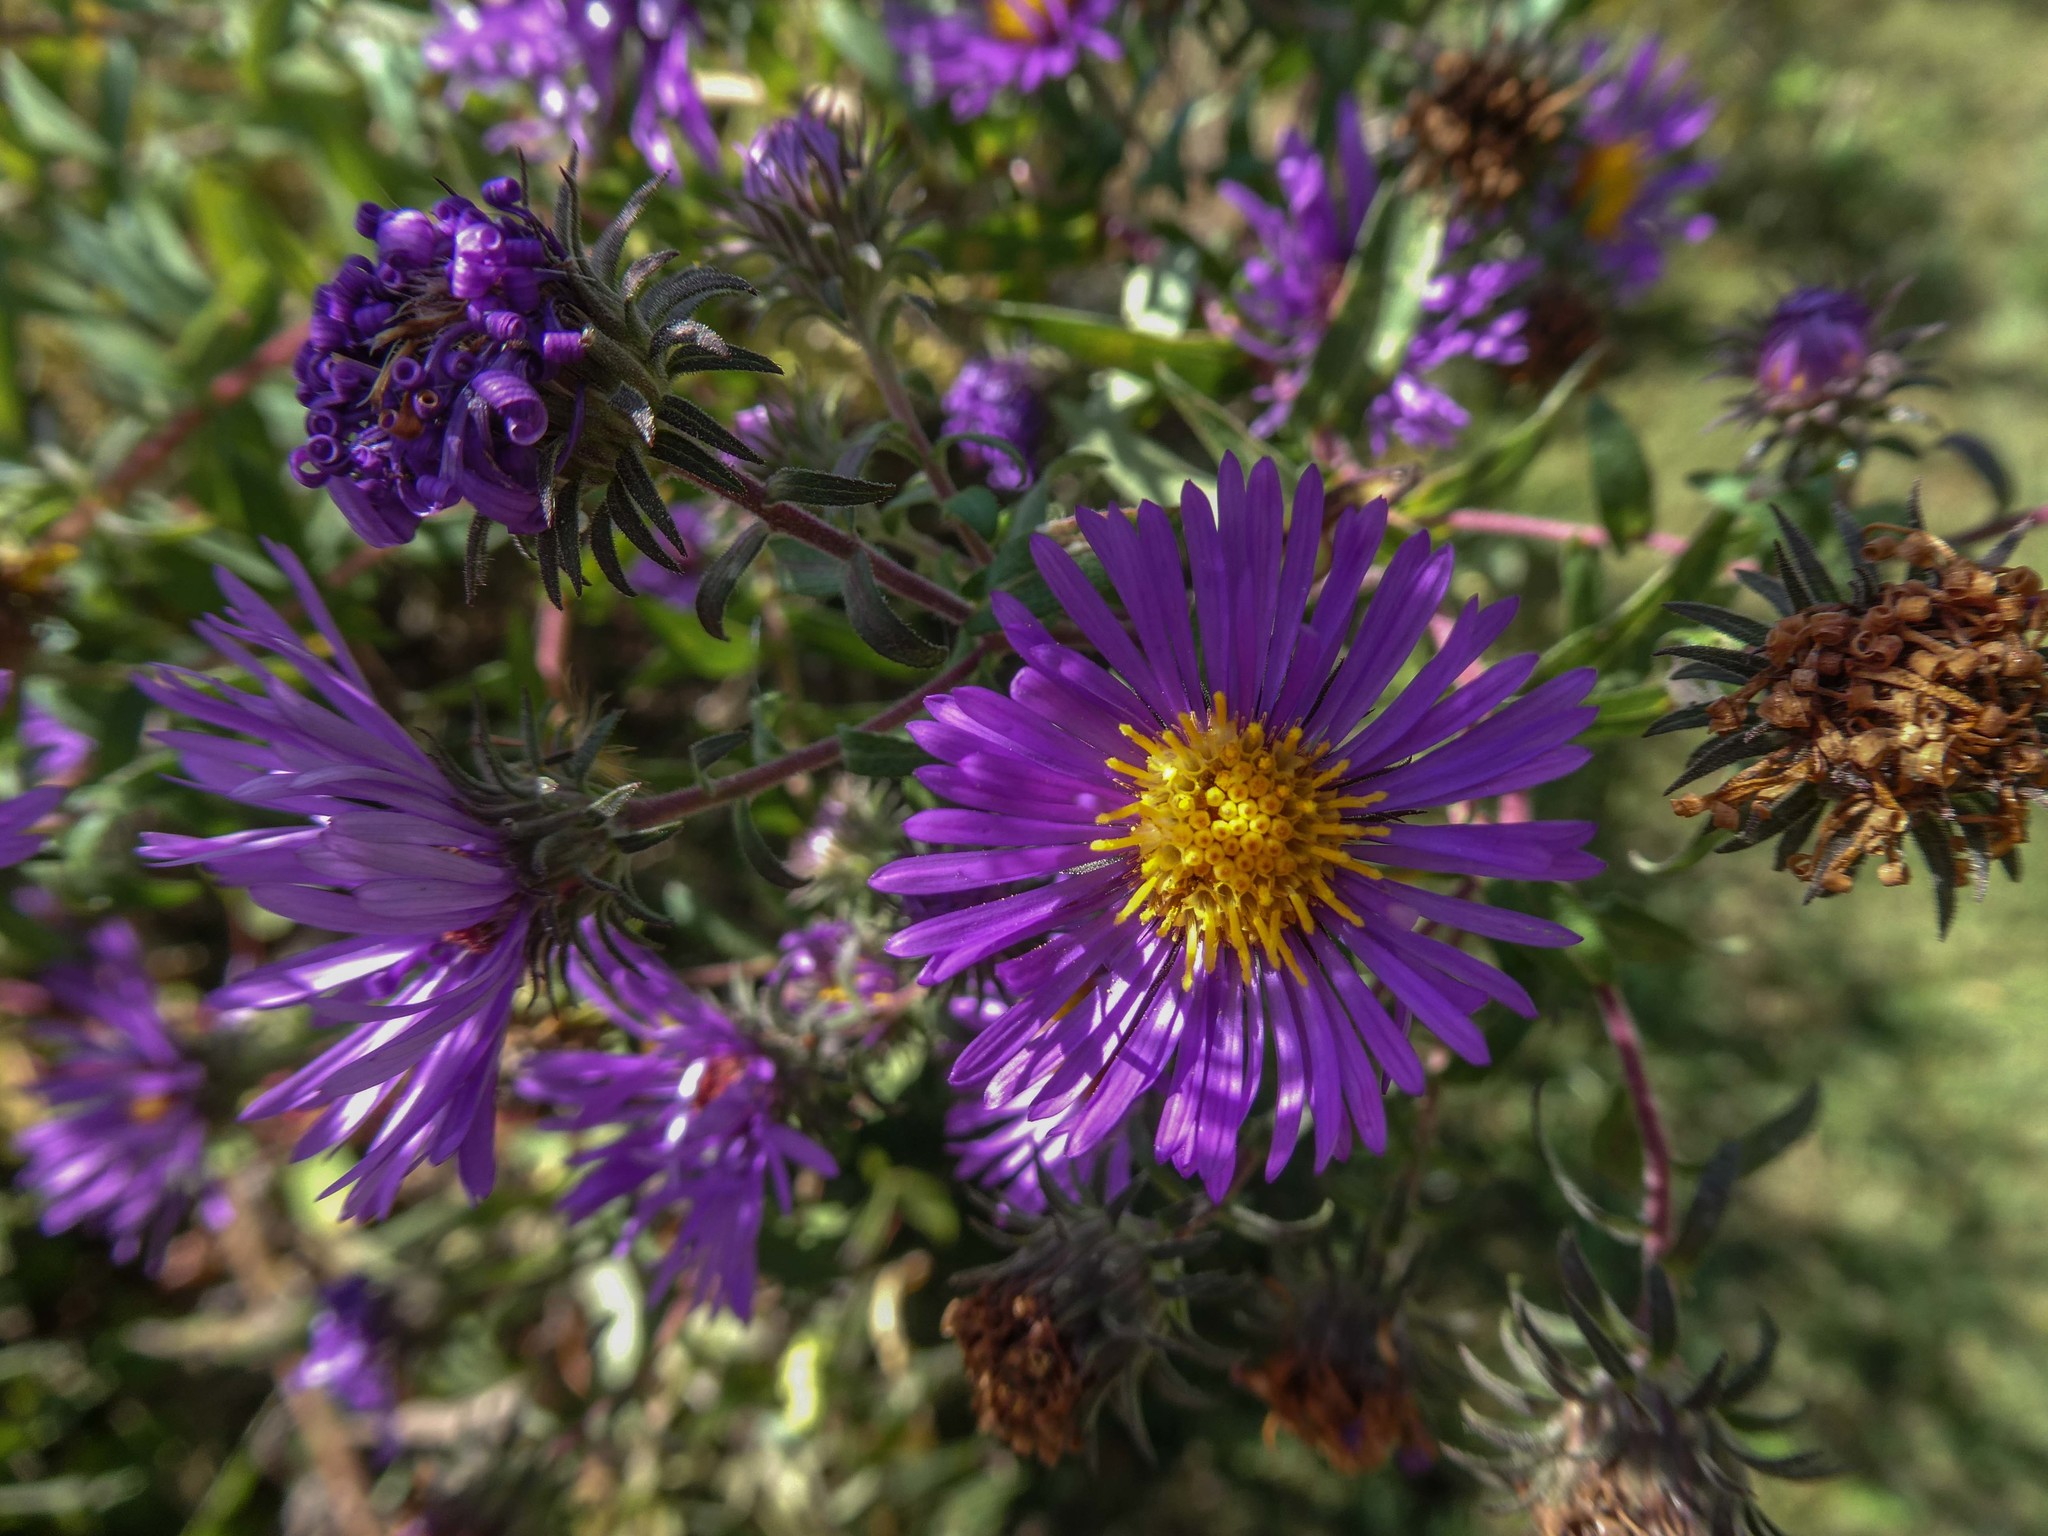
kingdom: Plantae
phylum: Tracheophyta
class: Magnoliopsida
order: Asterales
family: Asteraceae
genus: Symphyotrichum
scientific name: Symphyotrichum novae-angliae
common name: Michaelmas daisy
